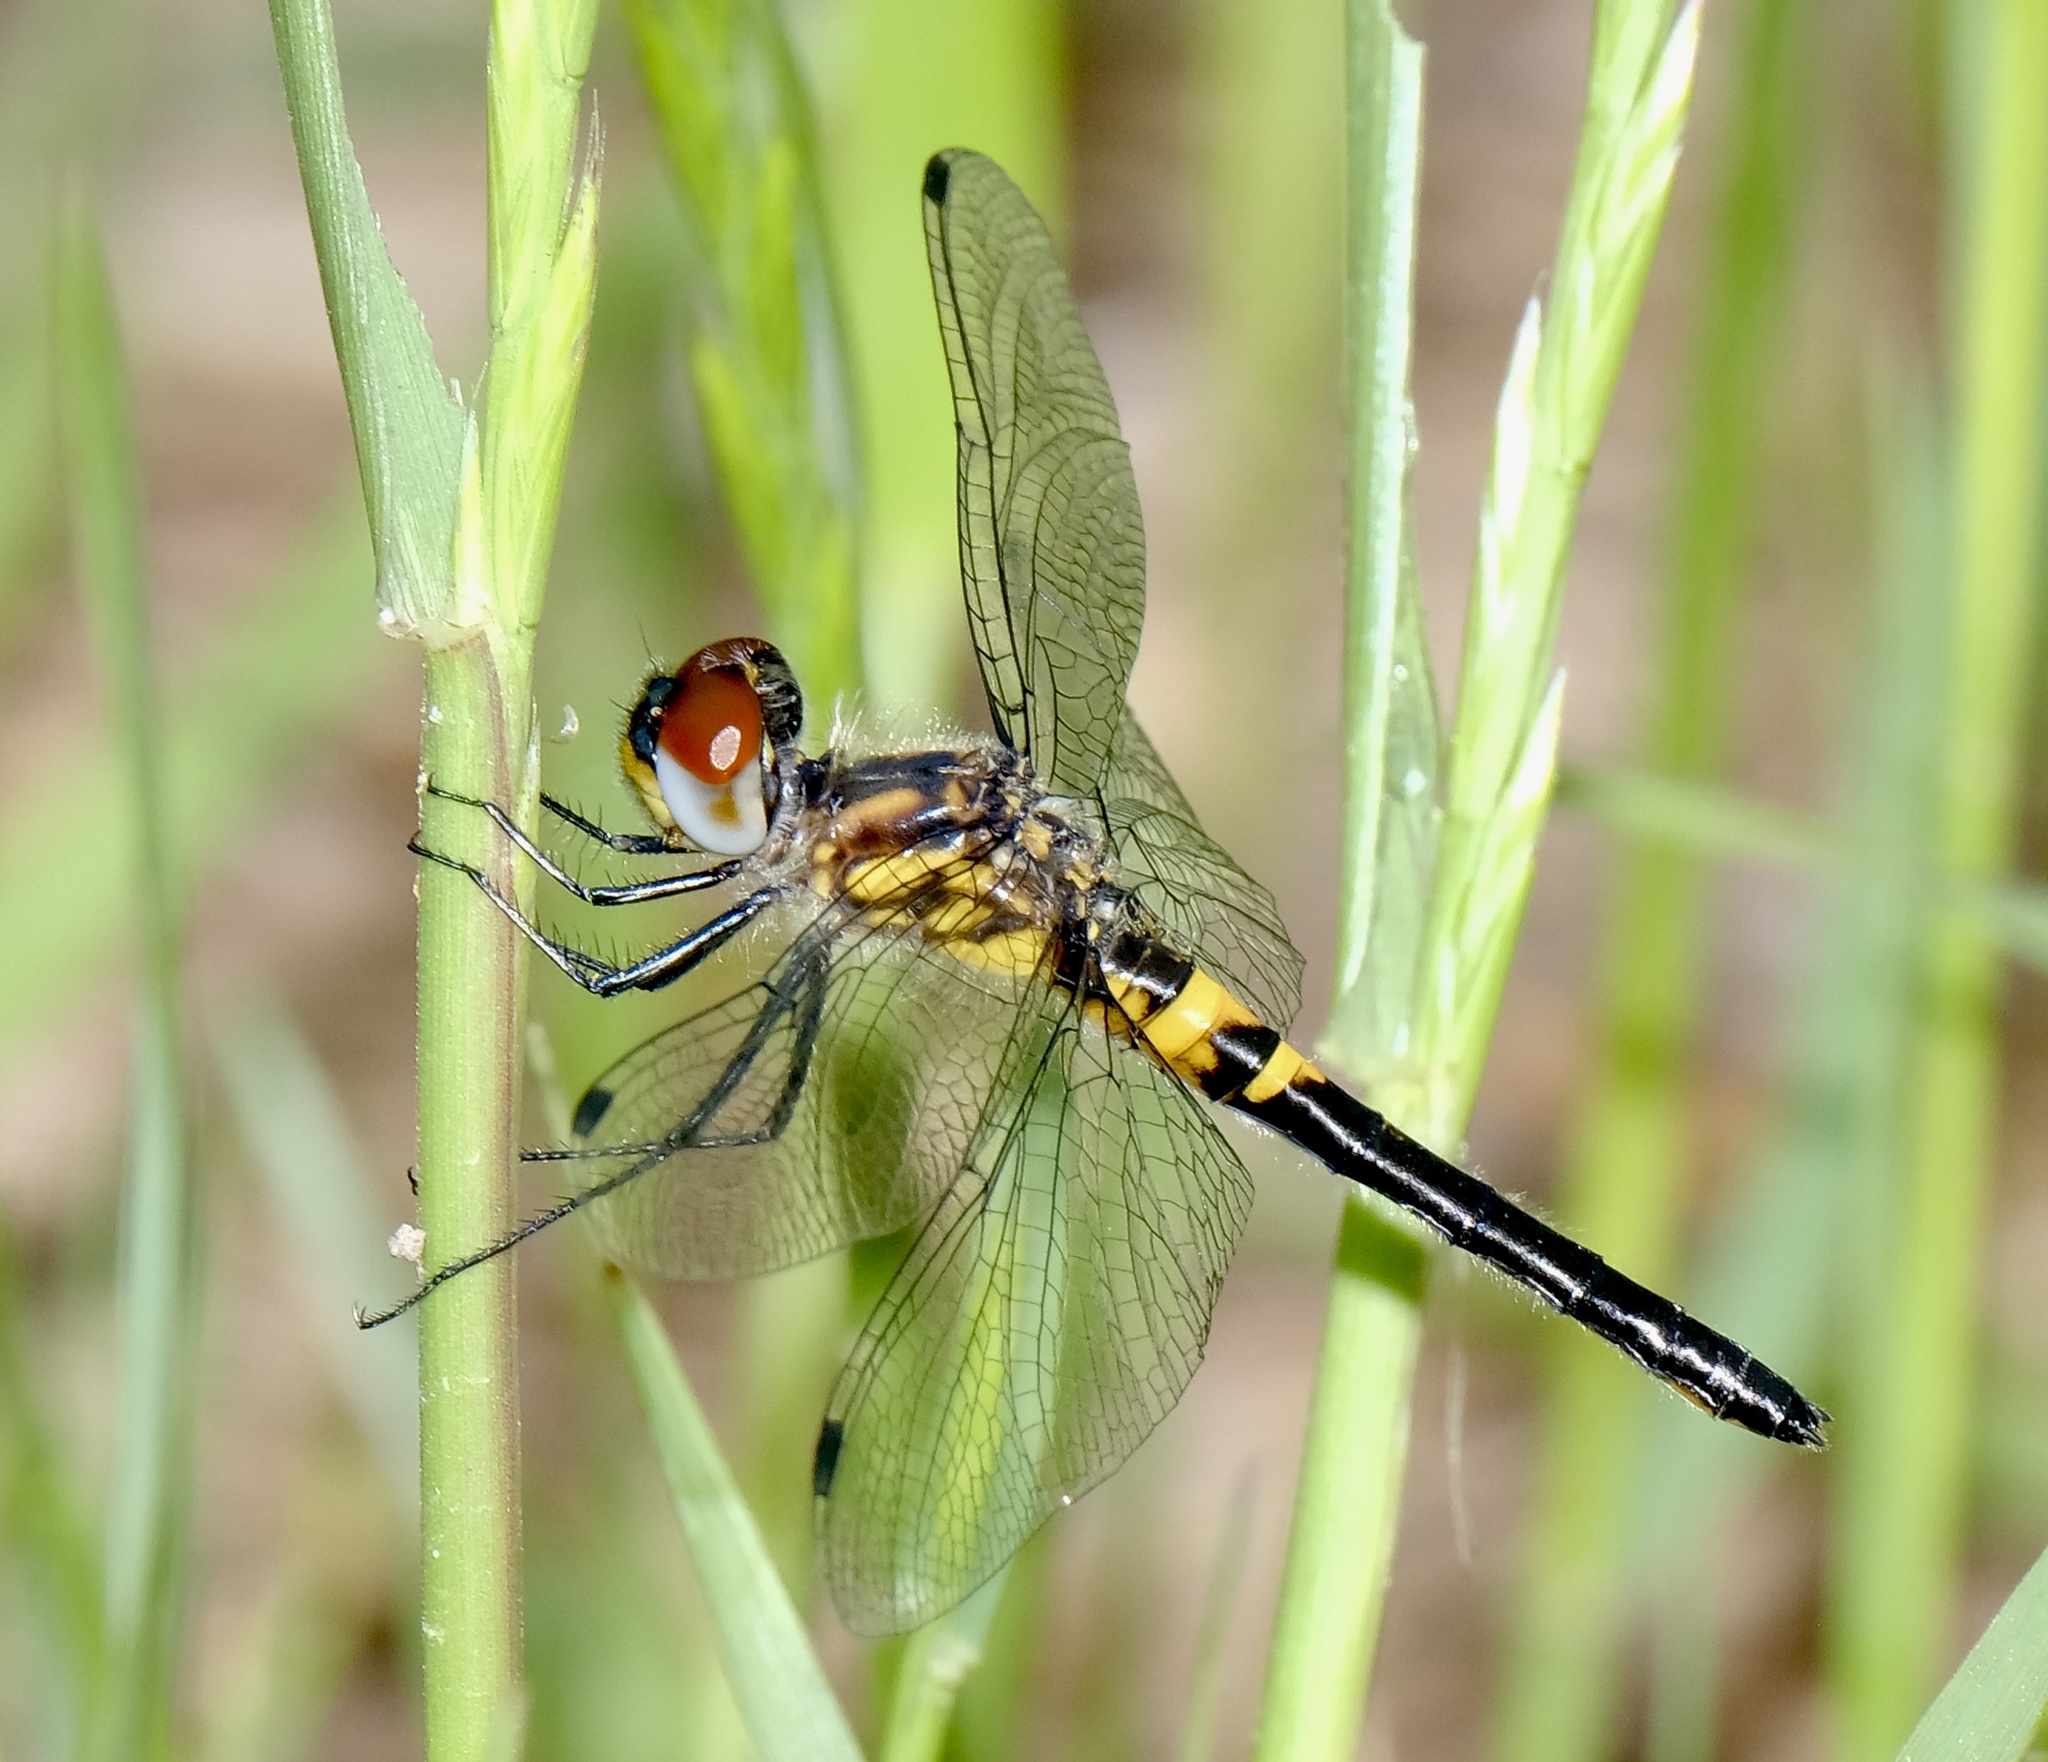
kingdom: Animalia
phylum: Arthropoda
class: Insecta
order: Odonata
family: Libellulidae
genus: Celithemis
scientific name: Celithemis verna
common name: Double-ringed pennant
